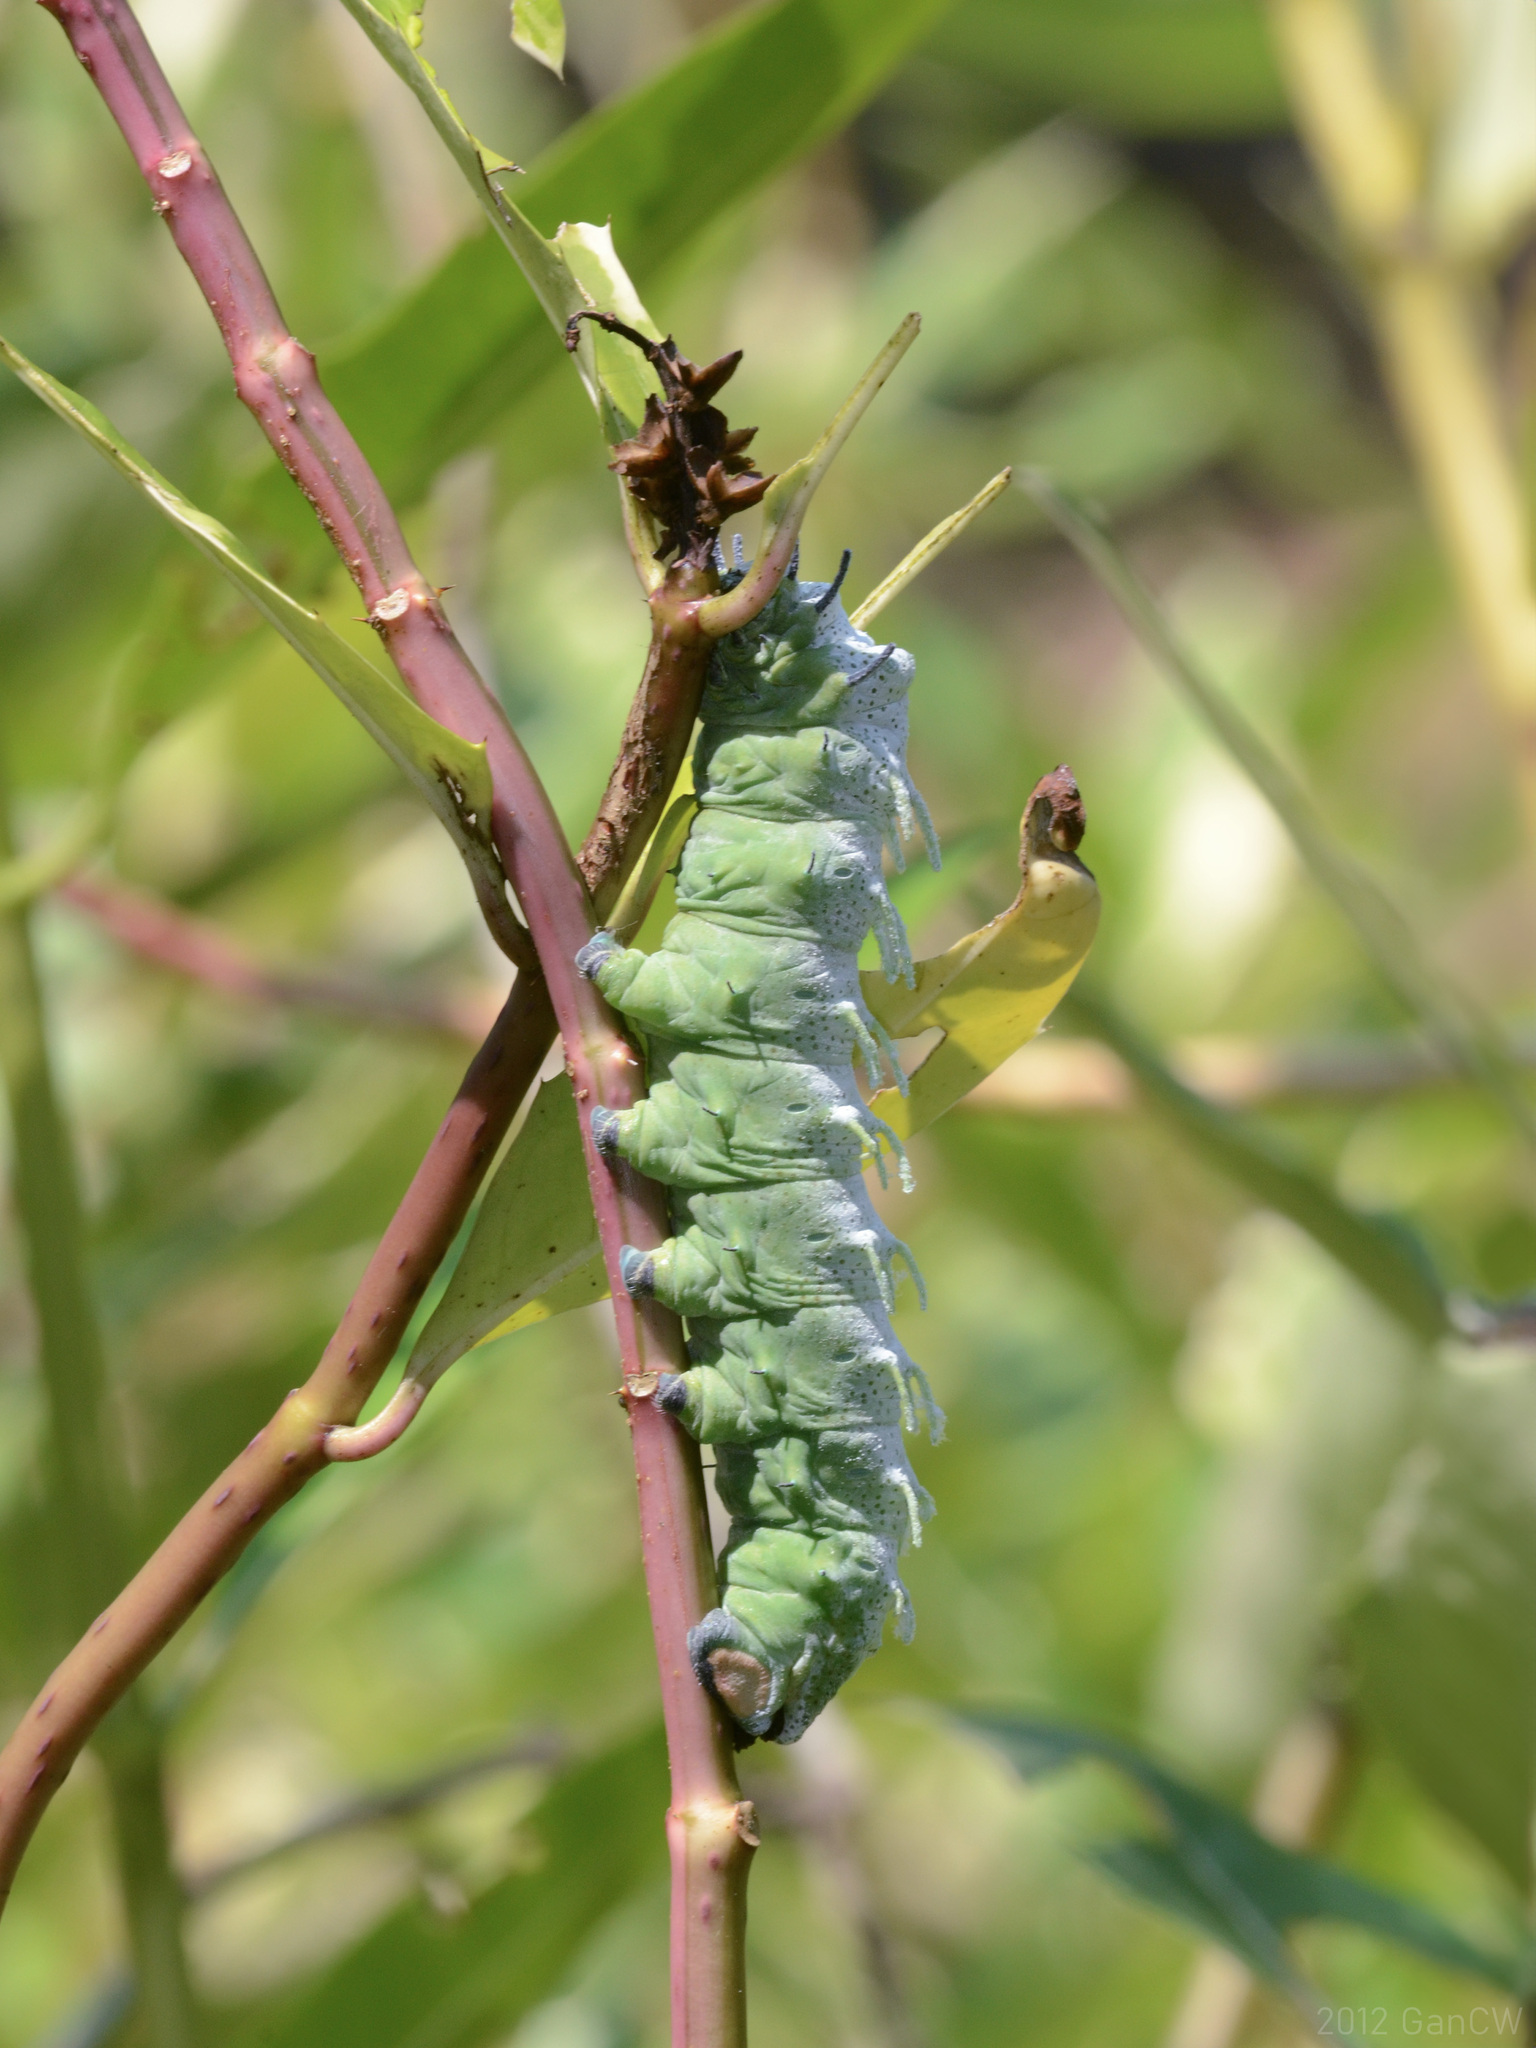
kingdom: Animalia
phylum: Arthropoda
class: Insecta
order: Lepidoptera
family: Saturniidae
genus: Attacus
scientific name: Attacus atlas
